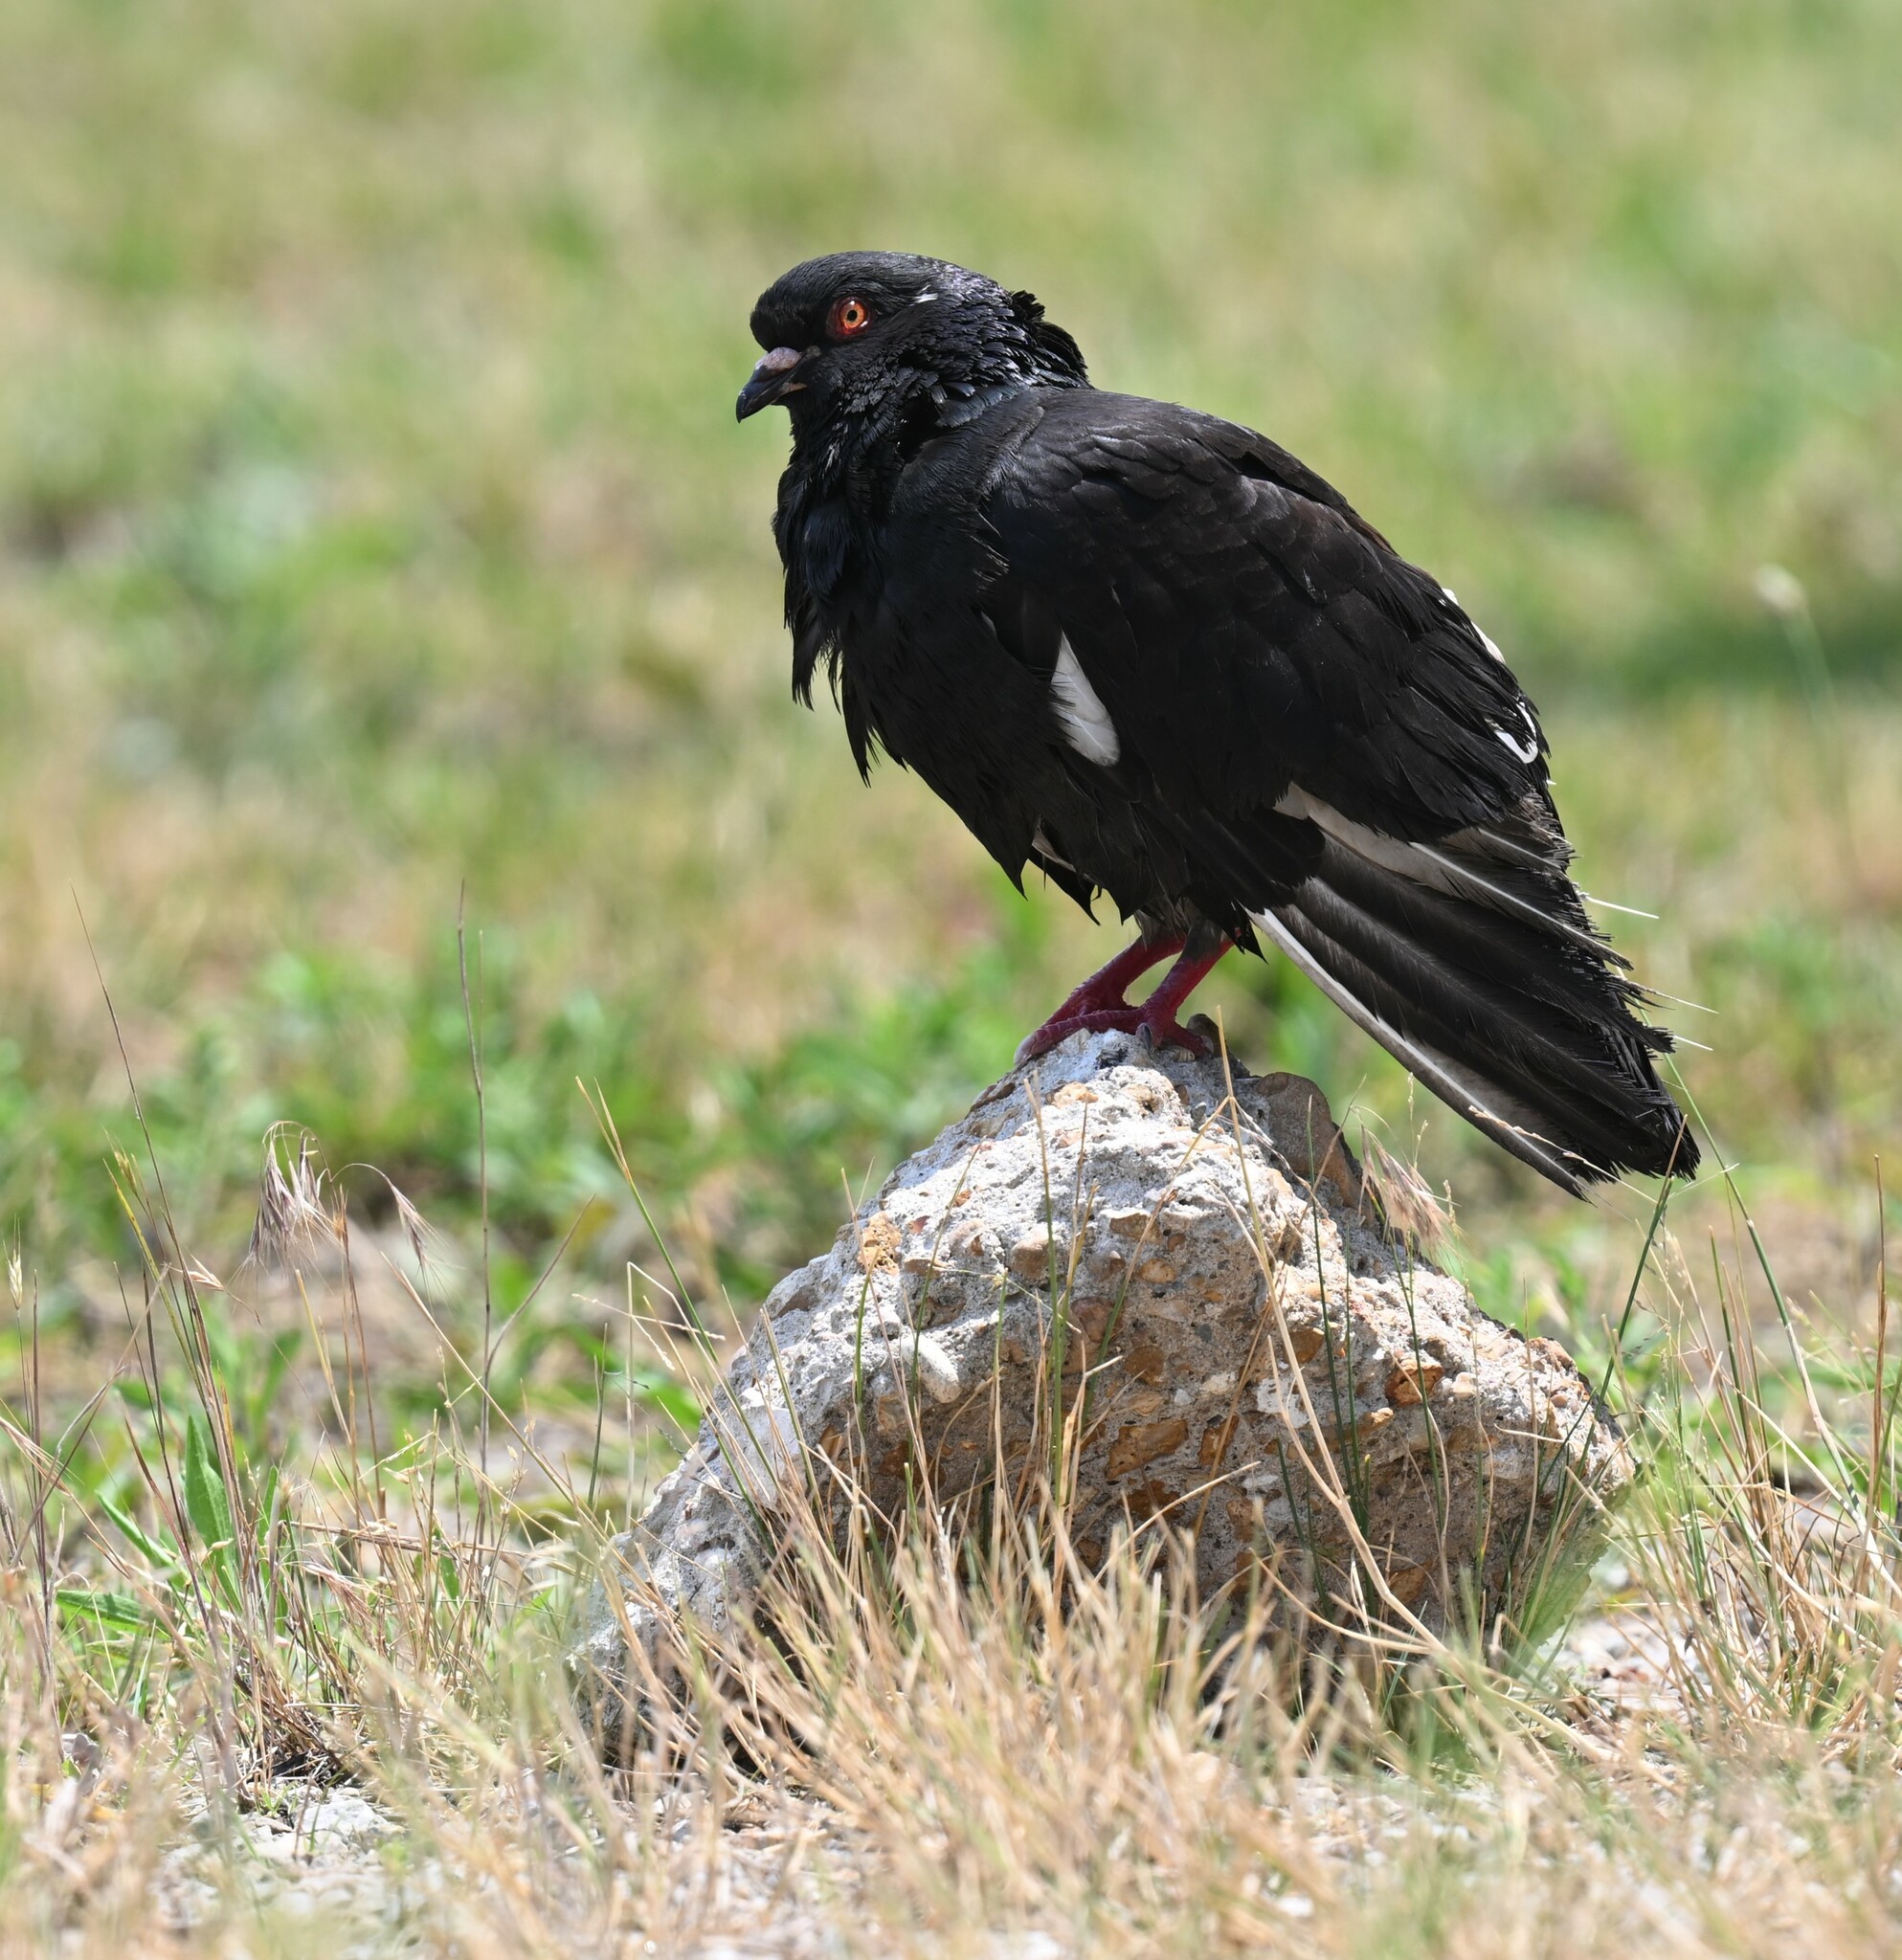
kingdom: Animalia
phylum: Chordata
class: Aves
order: Columbiformes
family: Columbidae
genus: Columba
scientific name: Columba livia
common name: Rock pigeon
